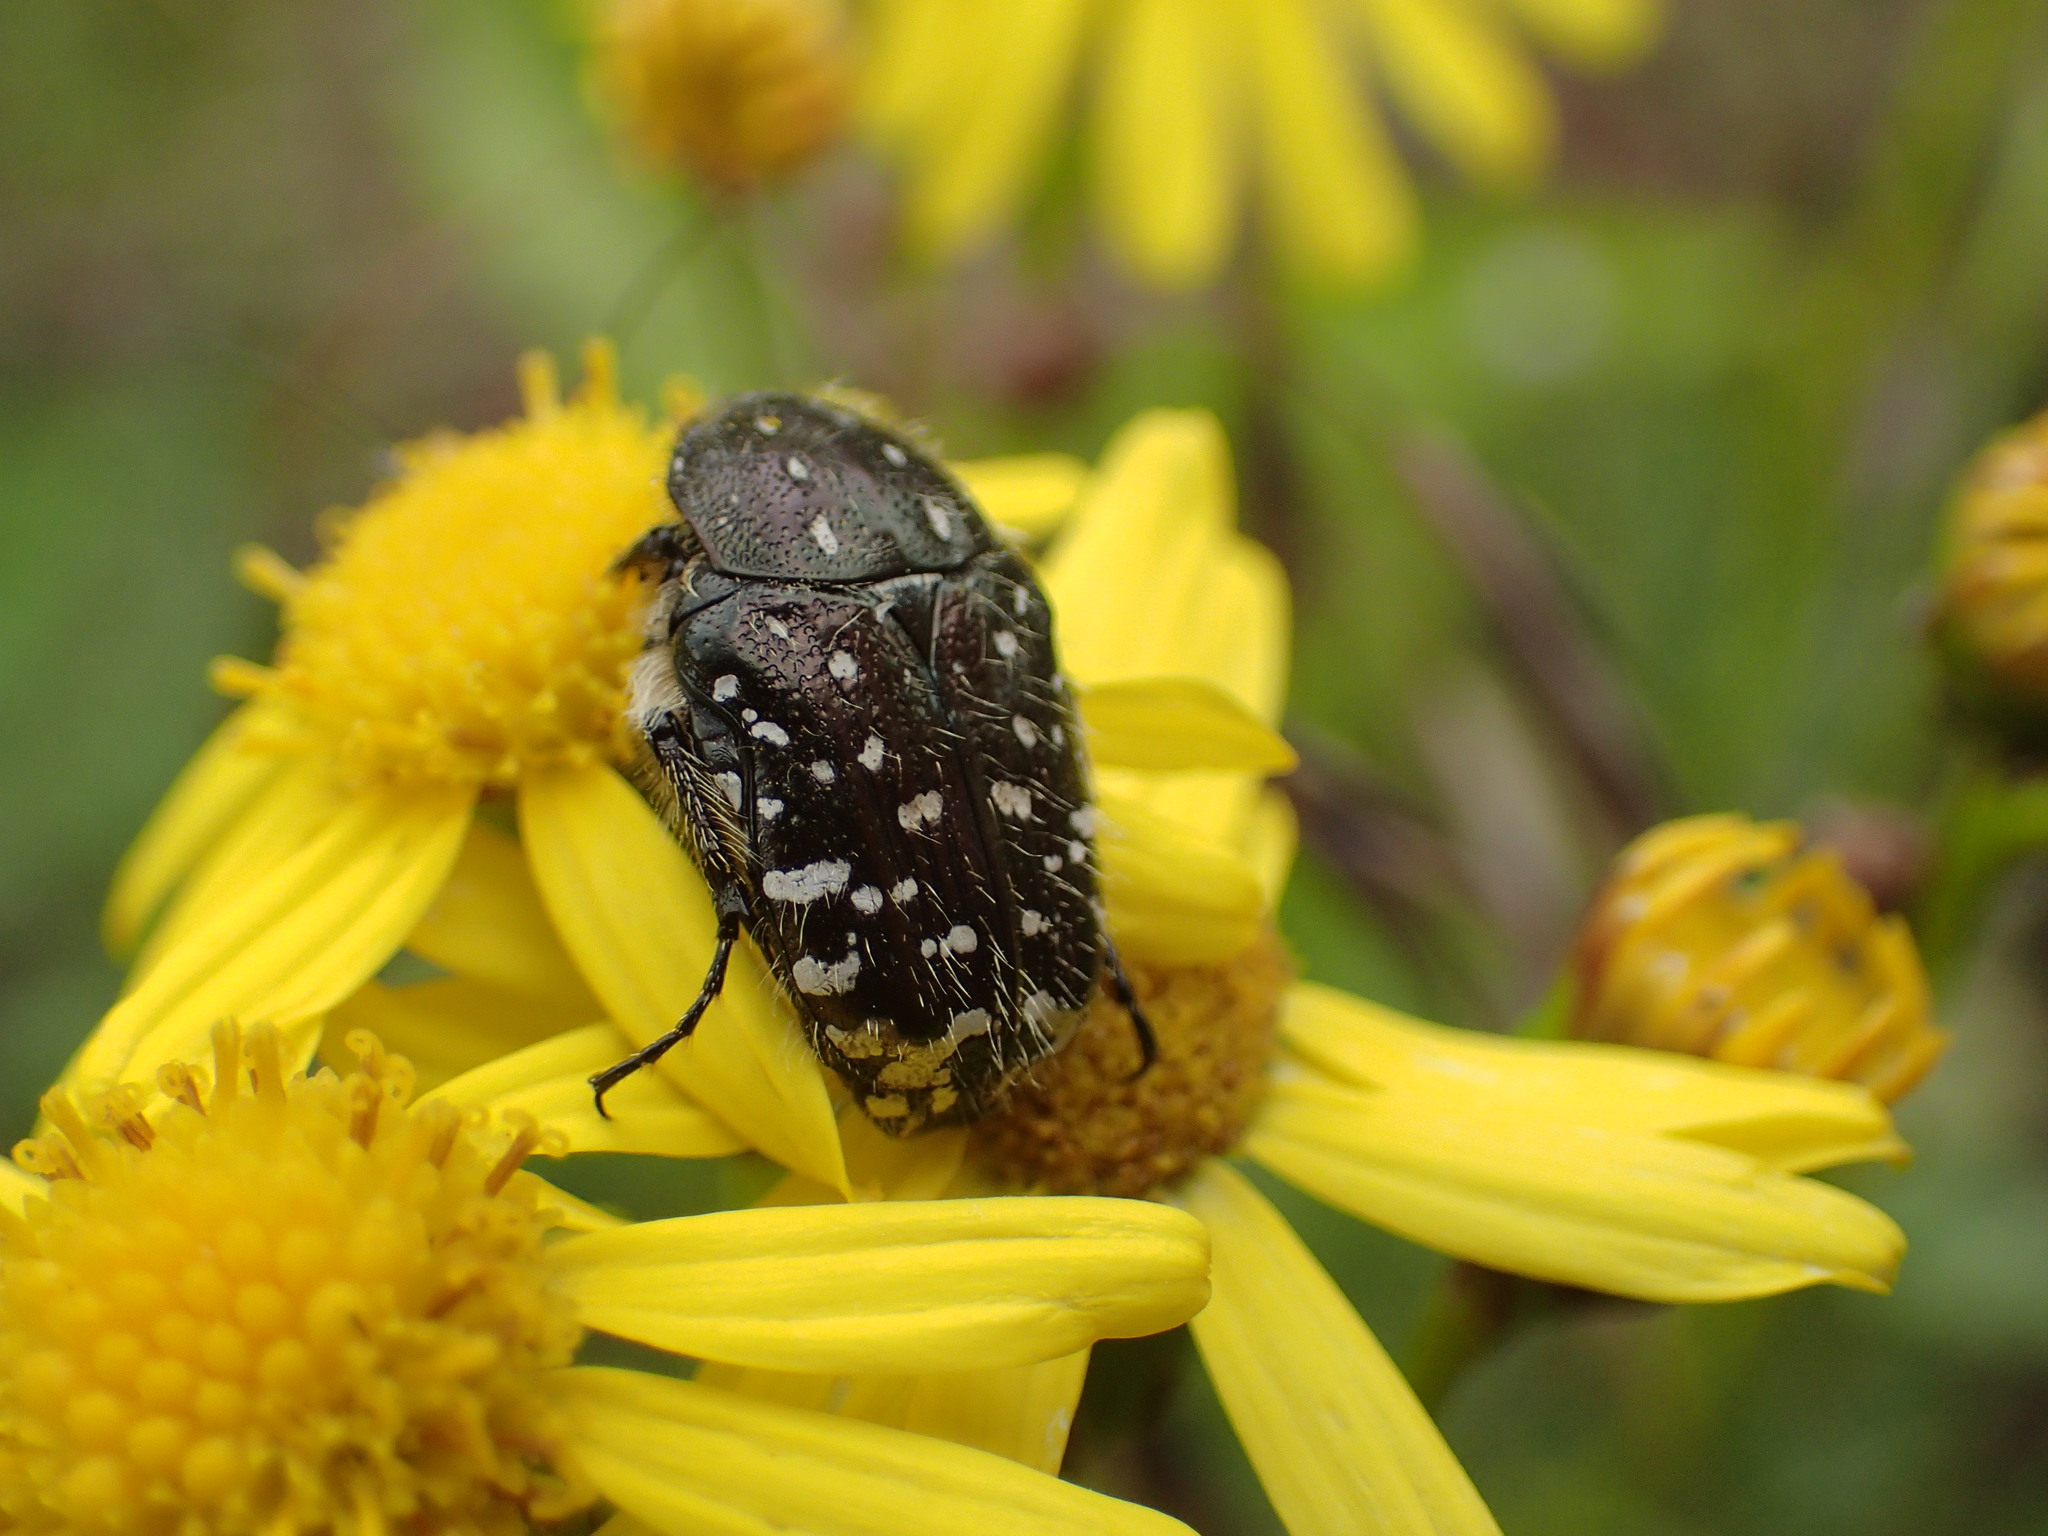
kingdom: Animalia
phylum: Arthropoda
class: Insecta
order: Coleoptera
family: Scarabaeidae
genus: Oxythyrea
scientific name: Oxythyrea funesta
